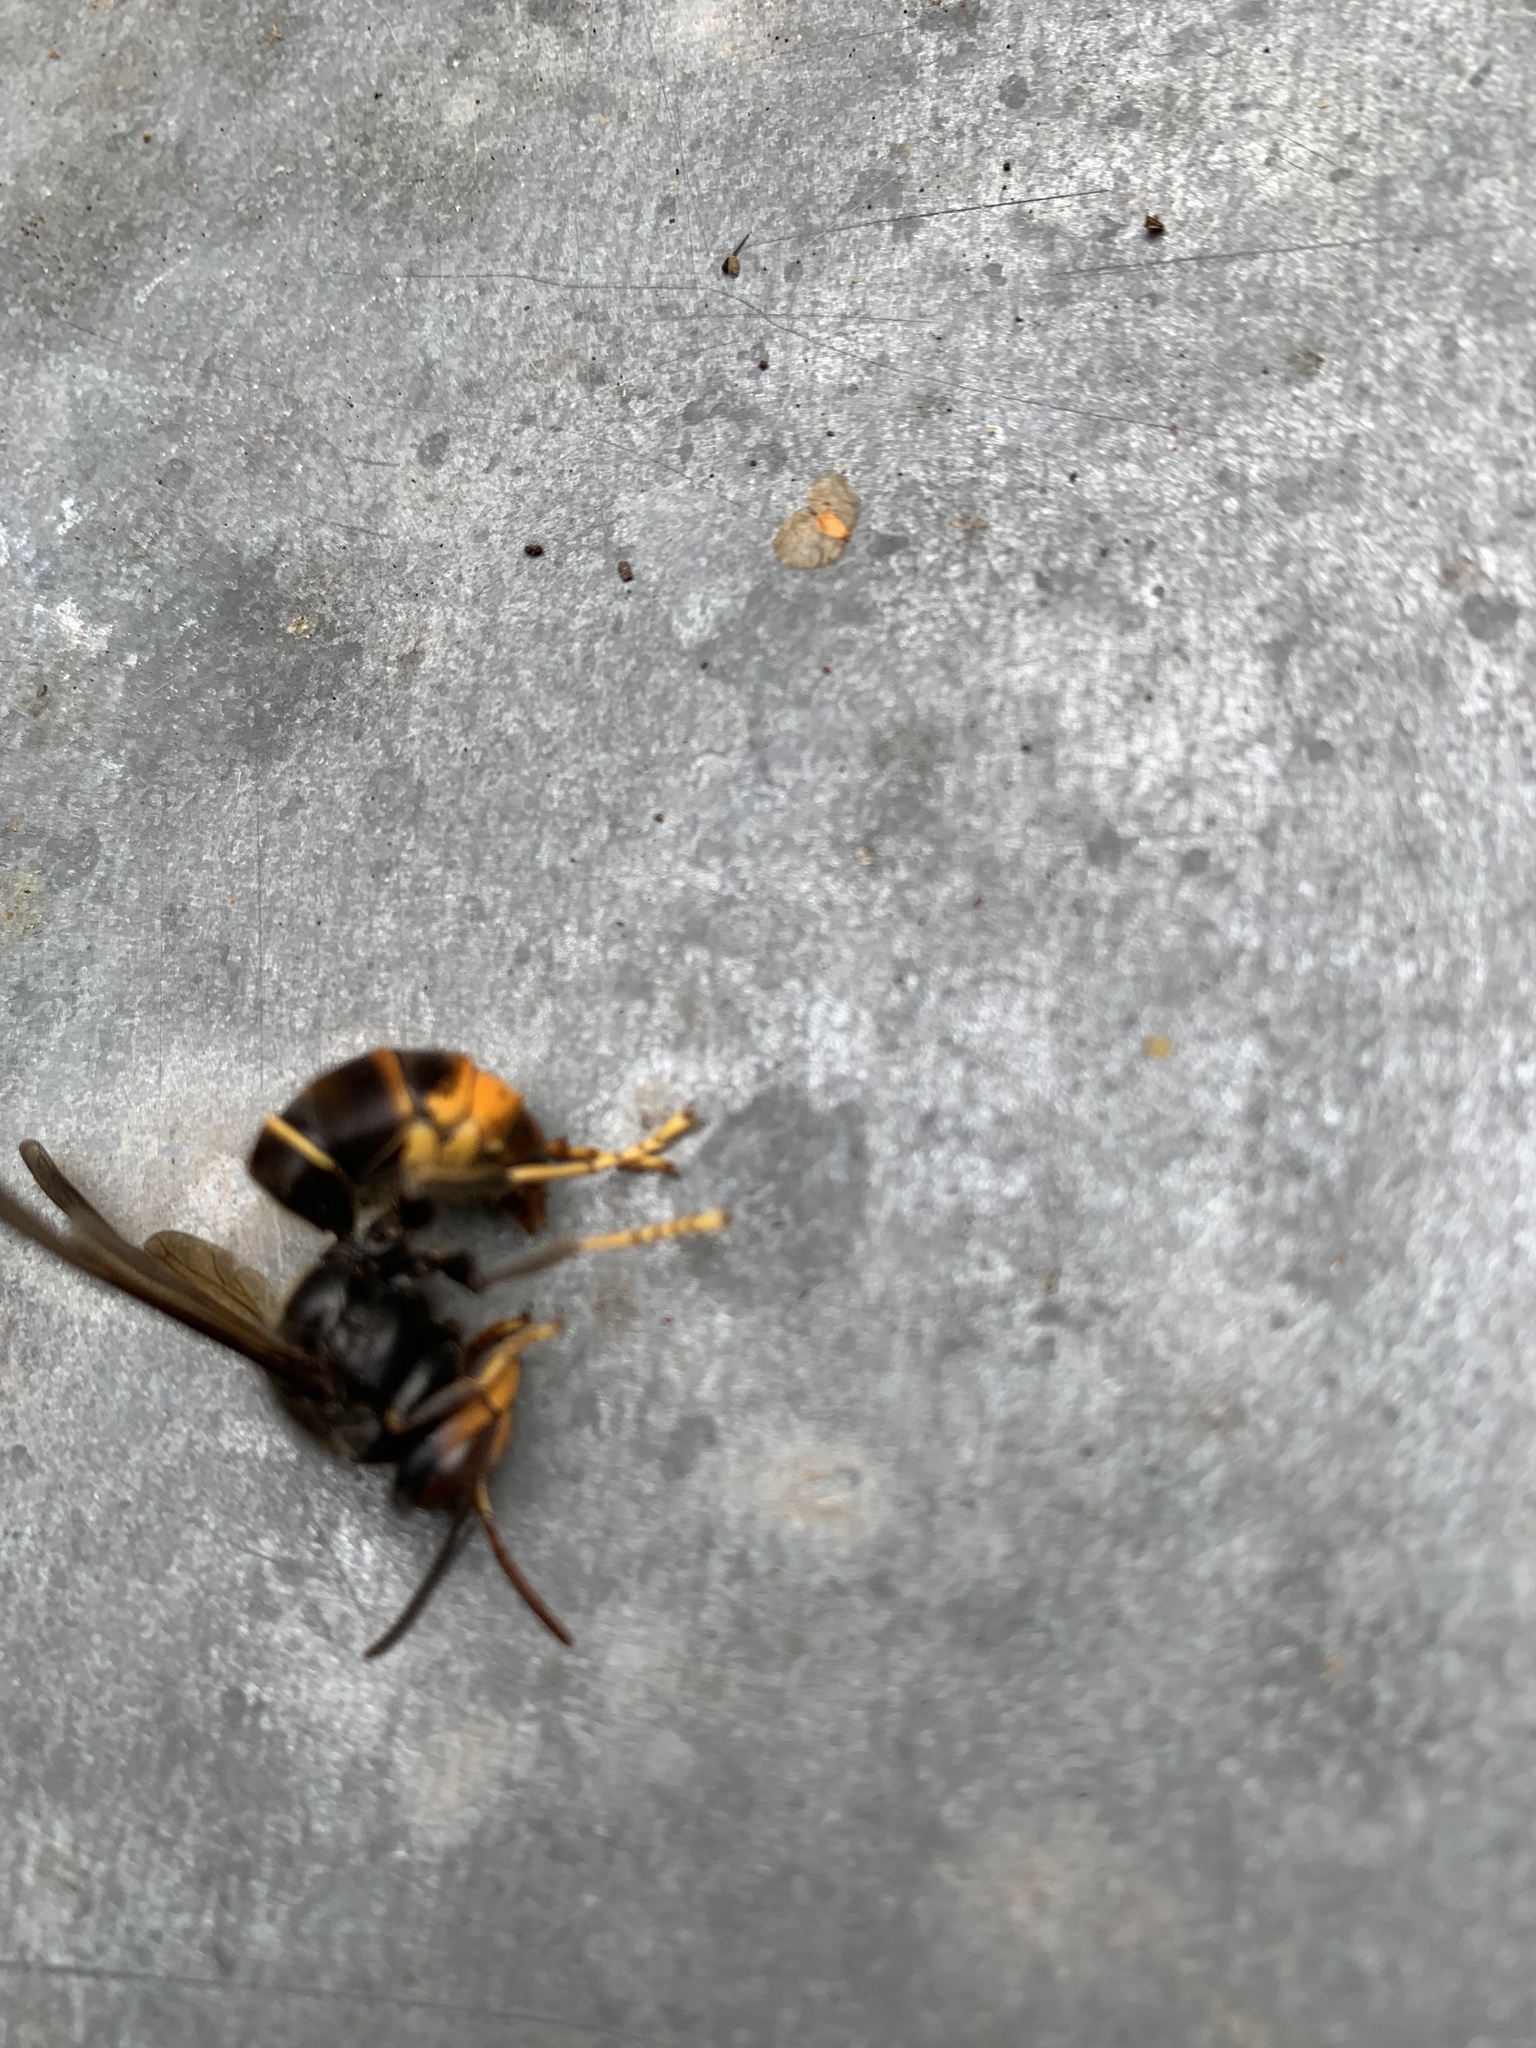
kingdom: Animalia
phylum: Arthropoda
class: Insecta
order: Hymenoptera
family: Vespidae
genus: Vespa
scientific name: Vespa velutina
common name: Asian hornet
